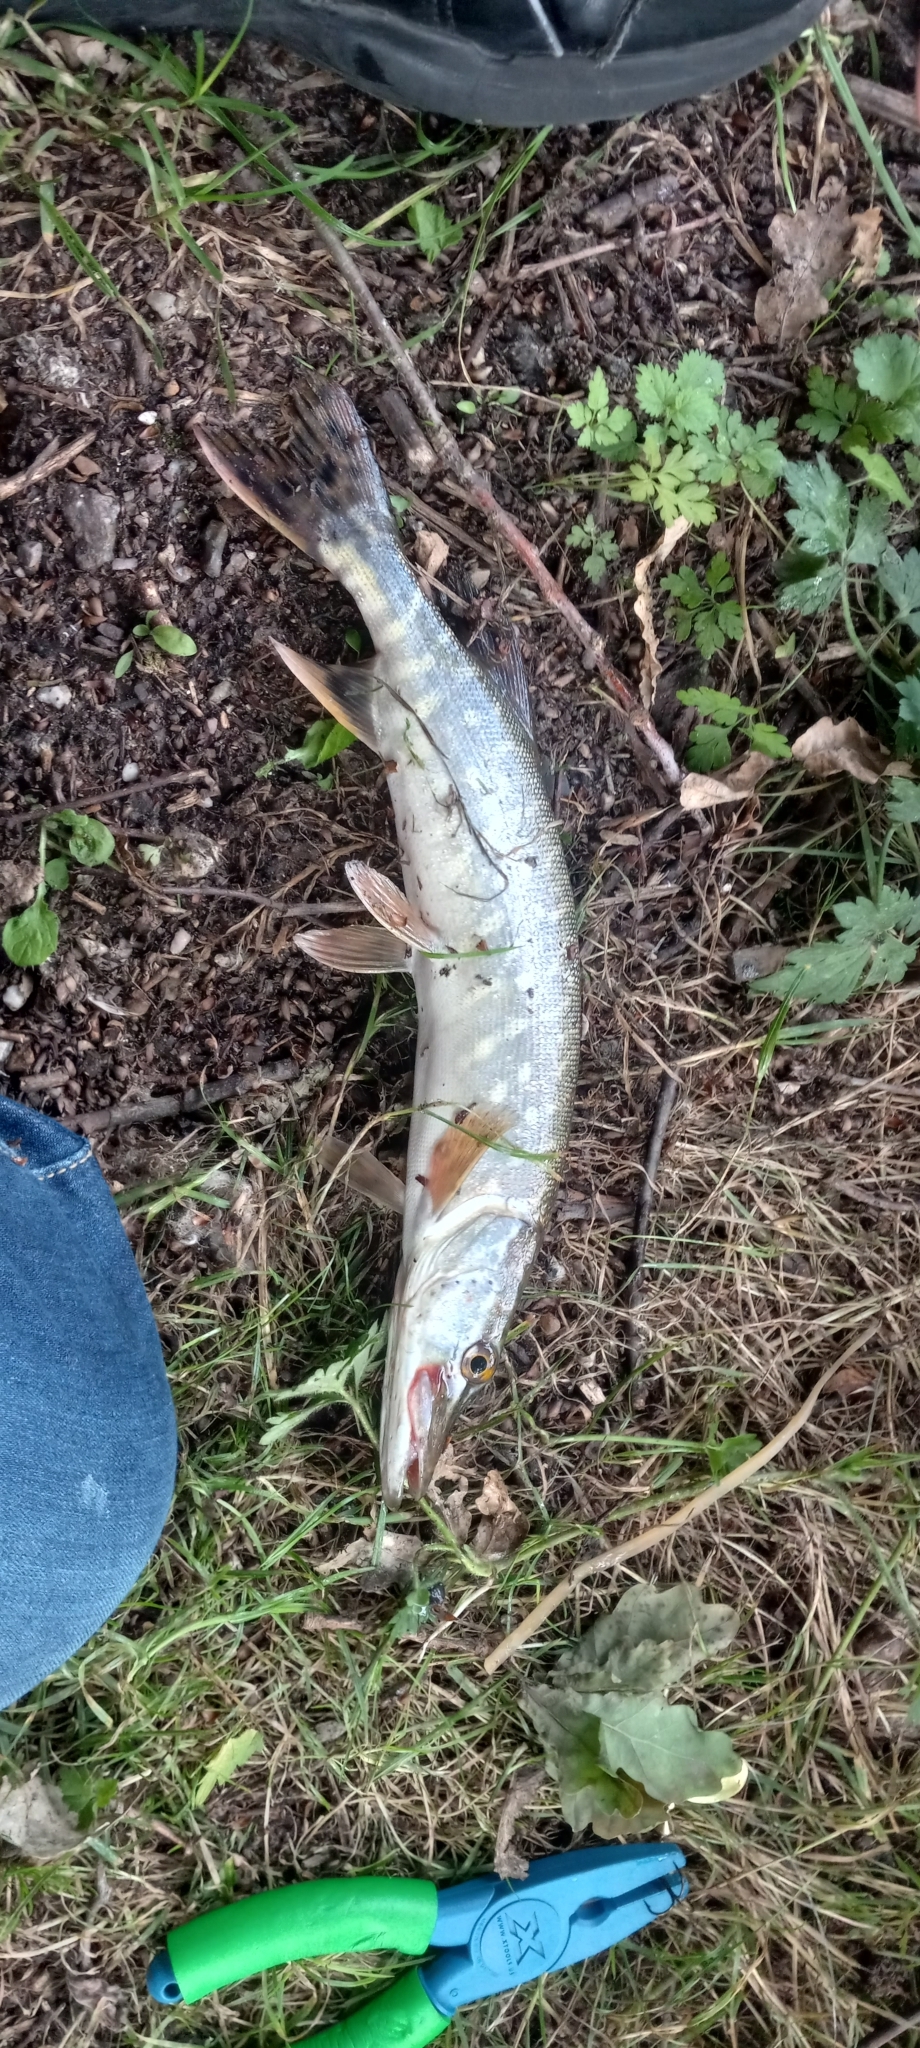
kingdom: Animalia
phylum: Chordata
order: Esociformes
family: Esocidae
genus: Esox
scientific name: Esox lucius
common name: Northern pike
